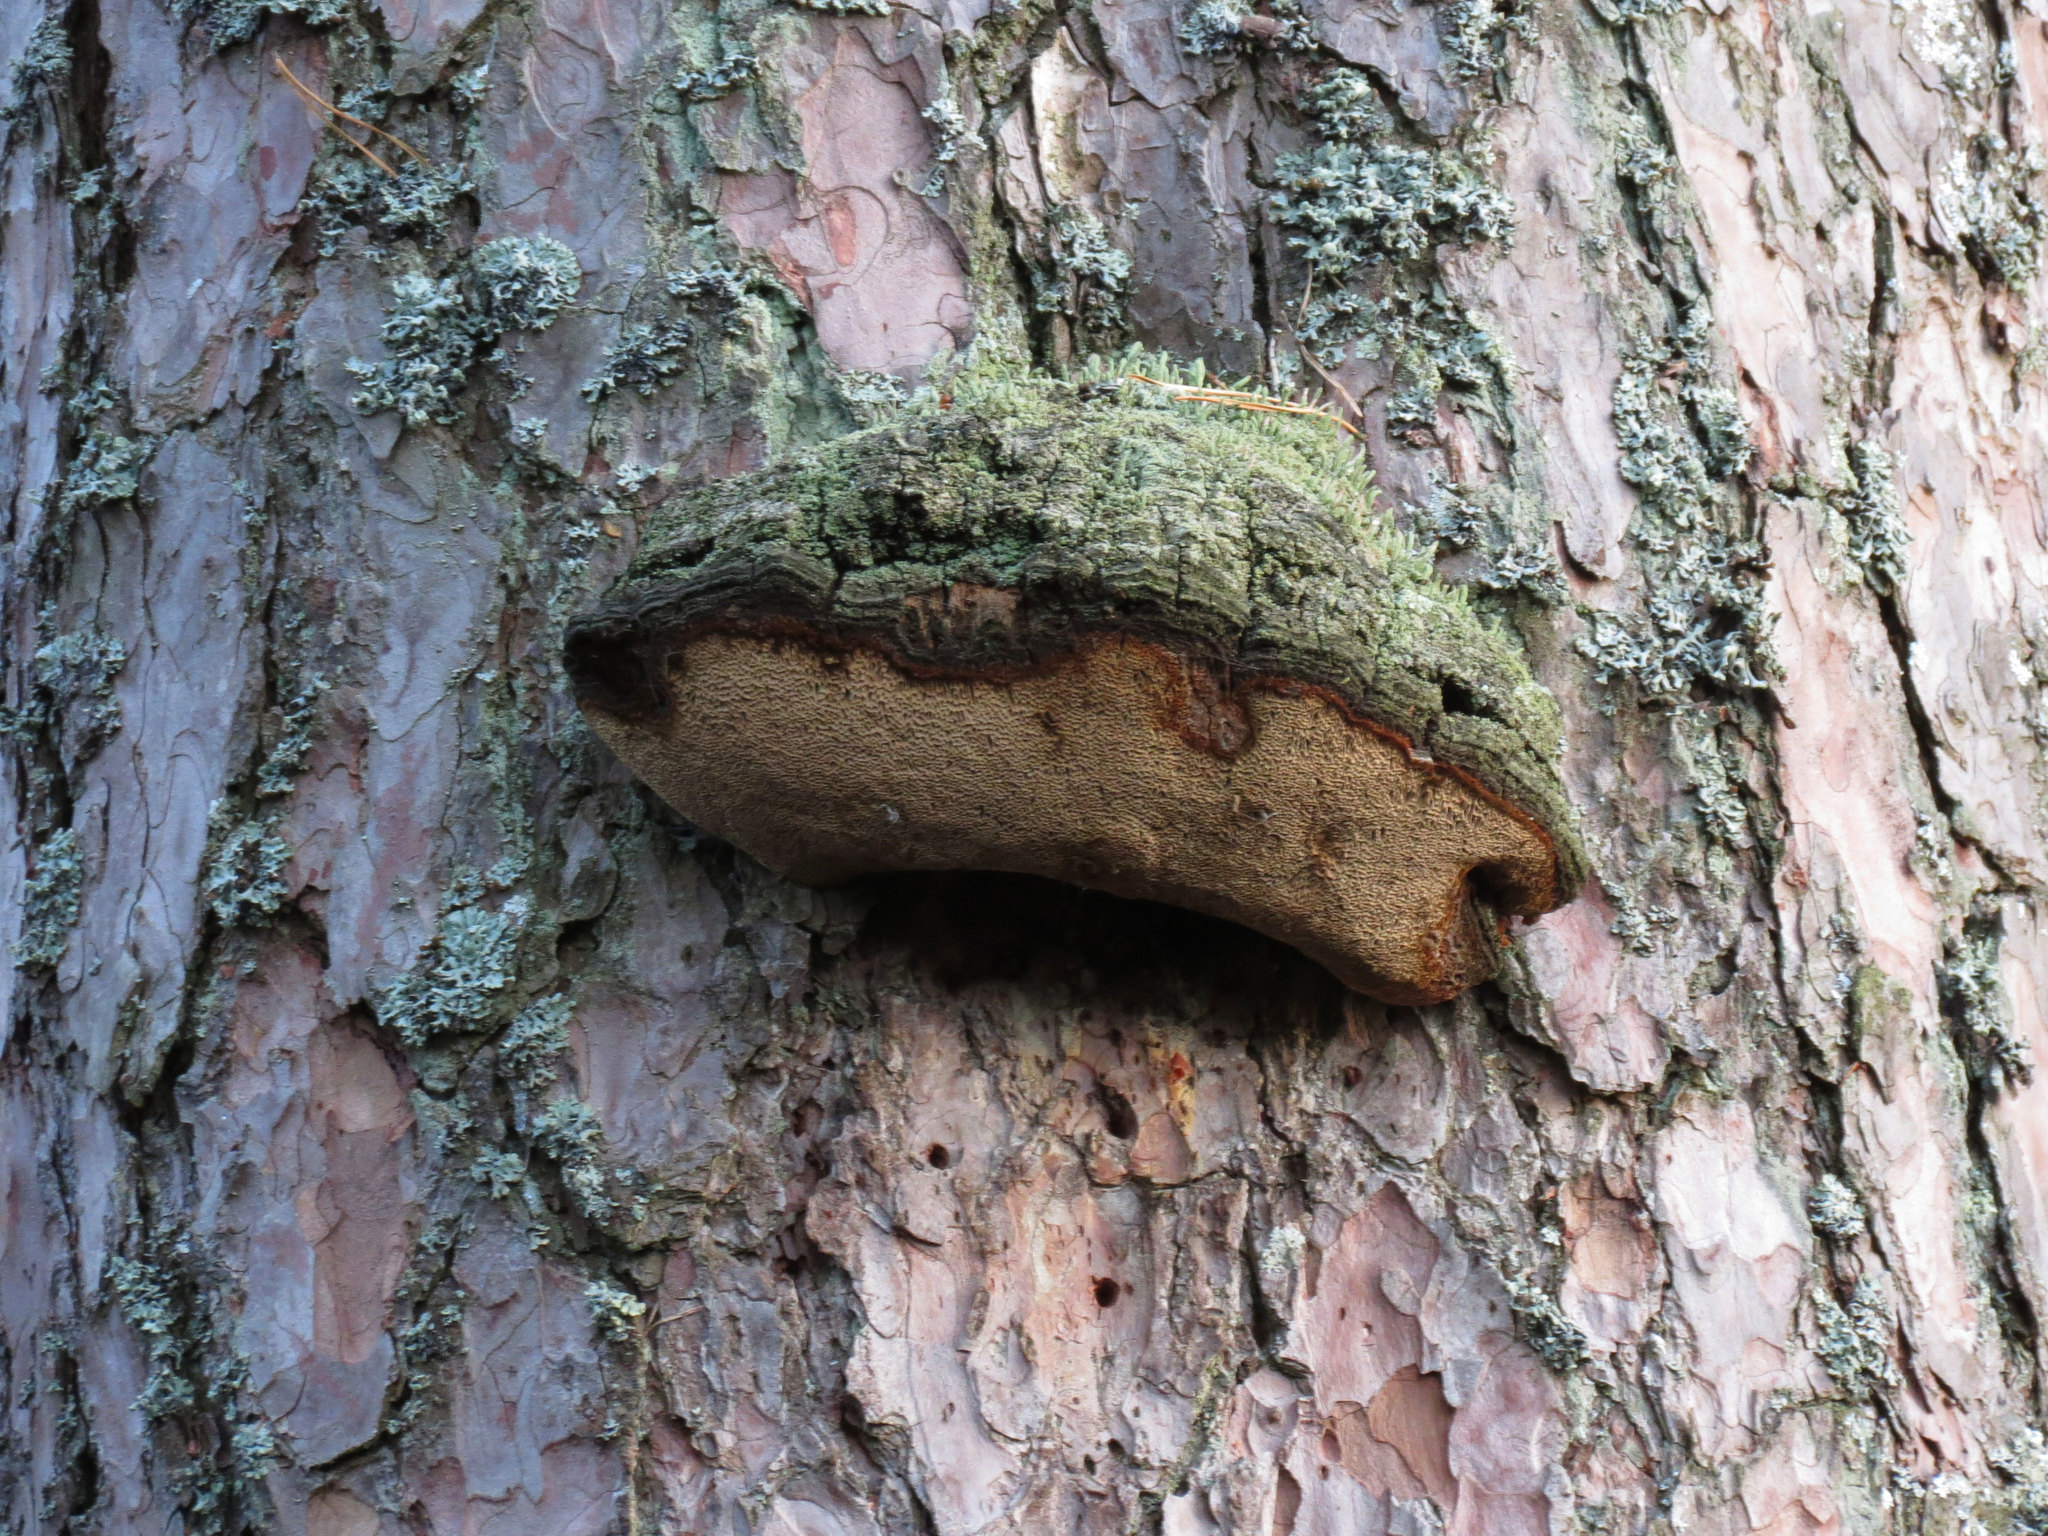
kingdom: Fungi
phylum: Basidiomycota
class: Agaricomycetes
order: Hymenochaetales
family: Hymenochaetaceae
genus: Porodaedalea
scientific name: Porodaedalea pini
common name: Pine bracket
